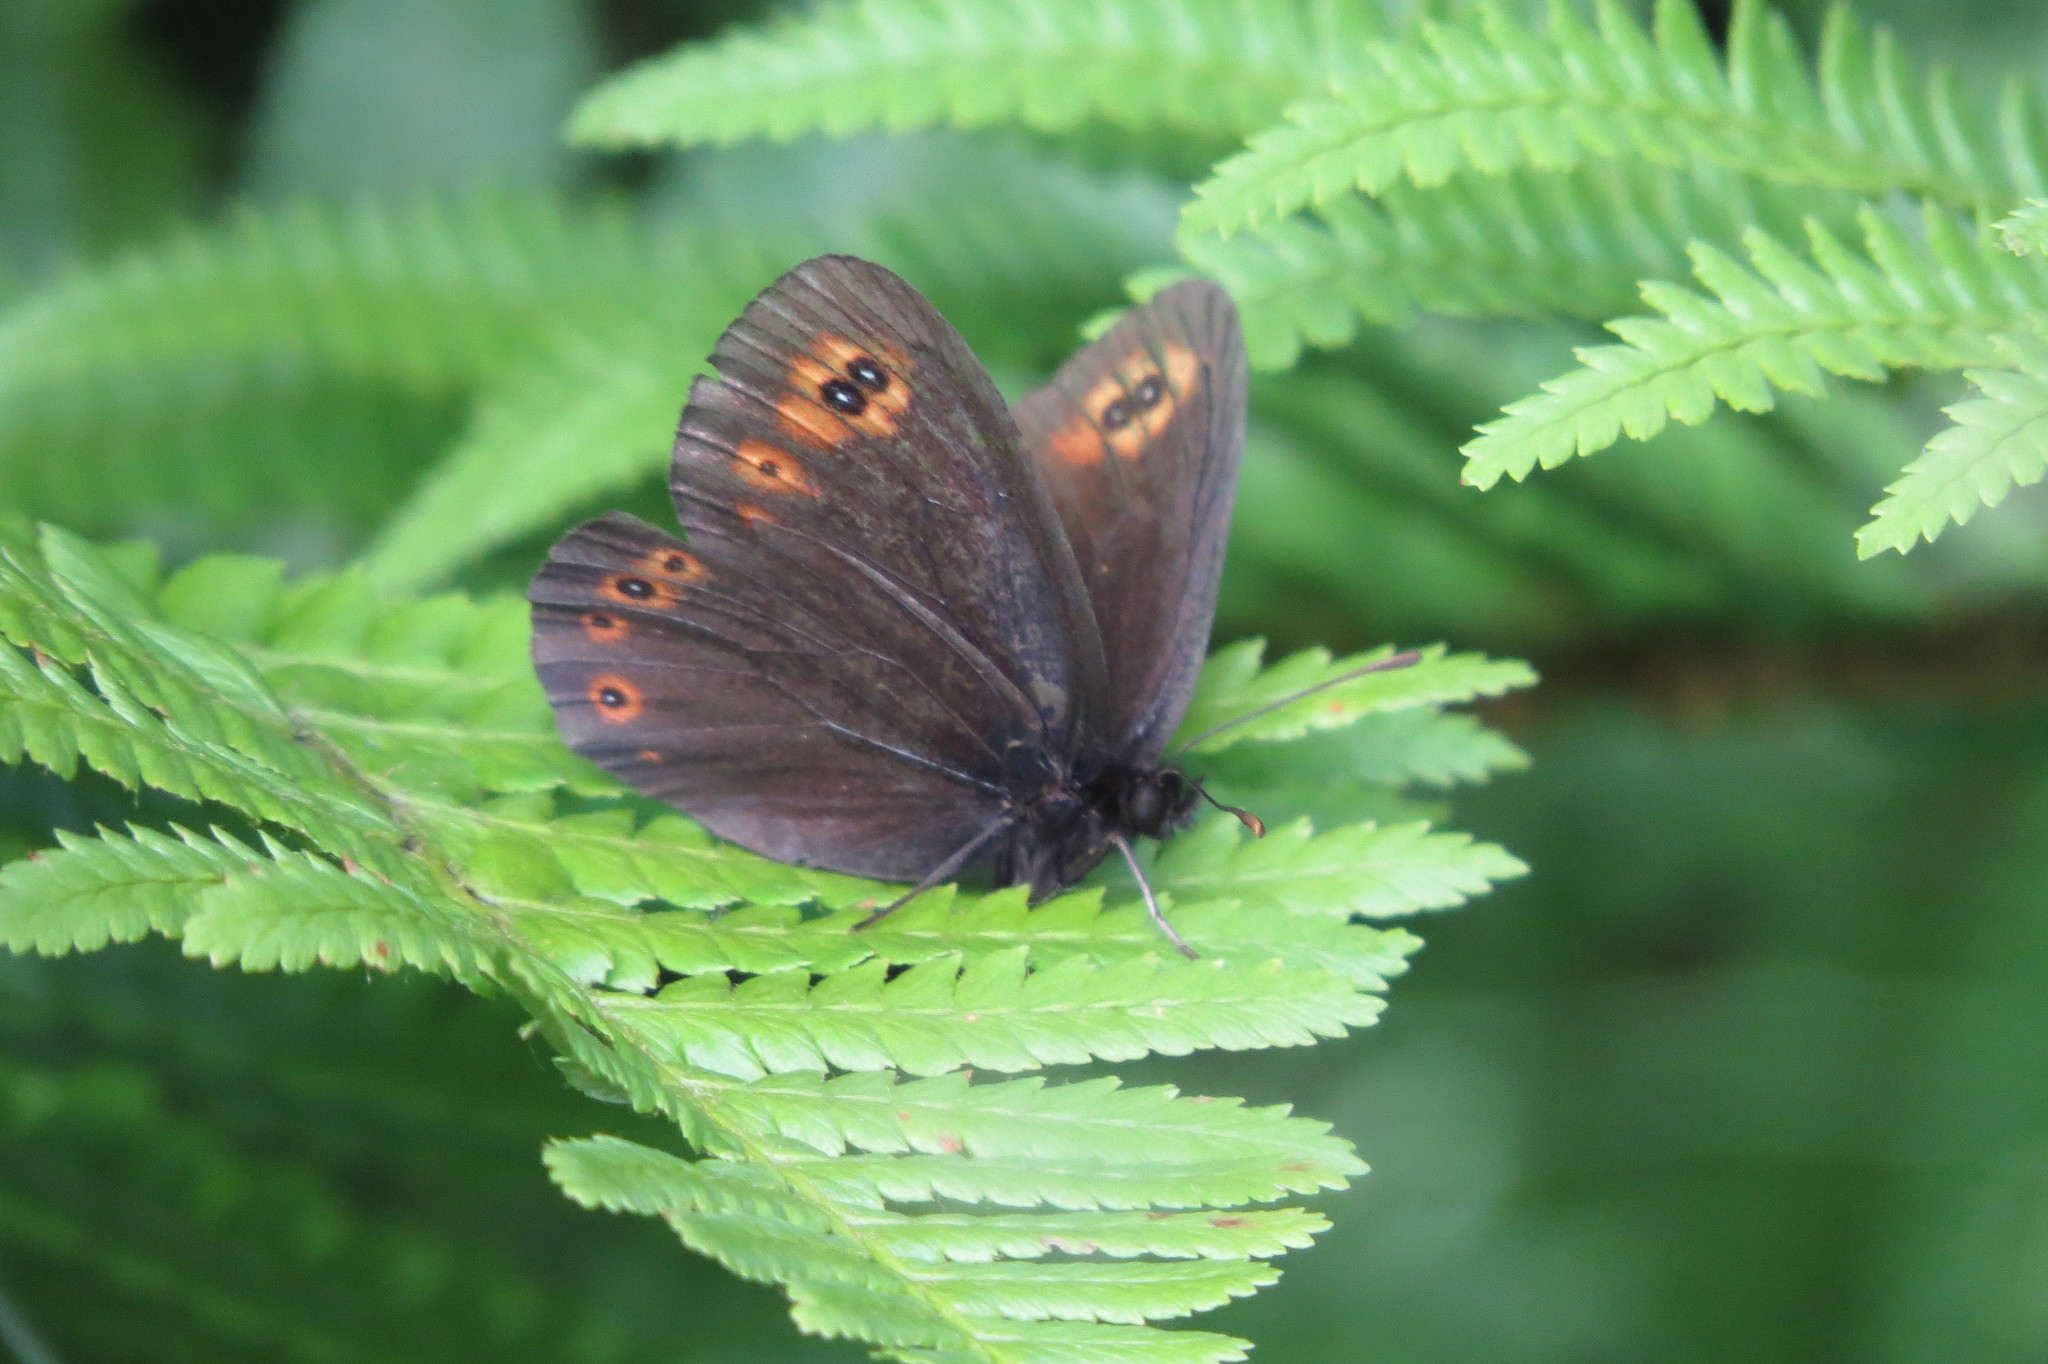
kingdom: Animalia
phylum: Arthropoda
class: Insecta
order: Lepidoptera
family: Nymphalidae
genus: Erebia
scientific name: Erebia medusa
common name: Woodland ringlet
